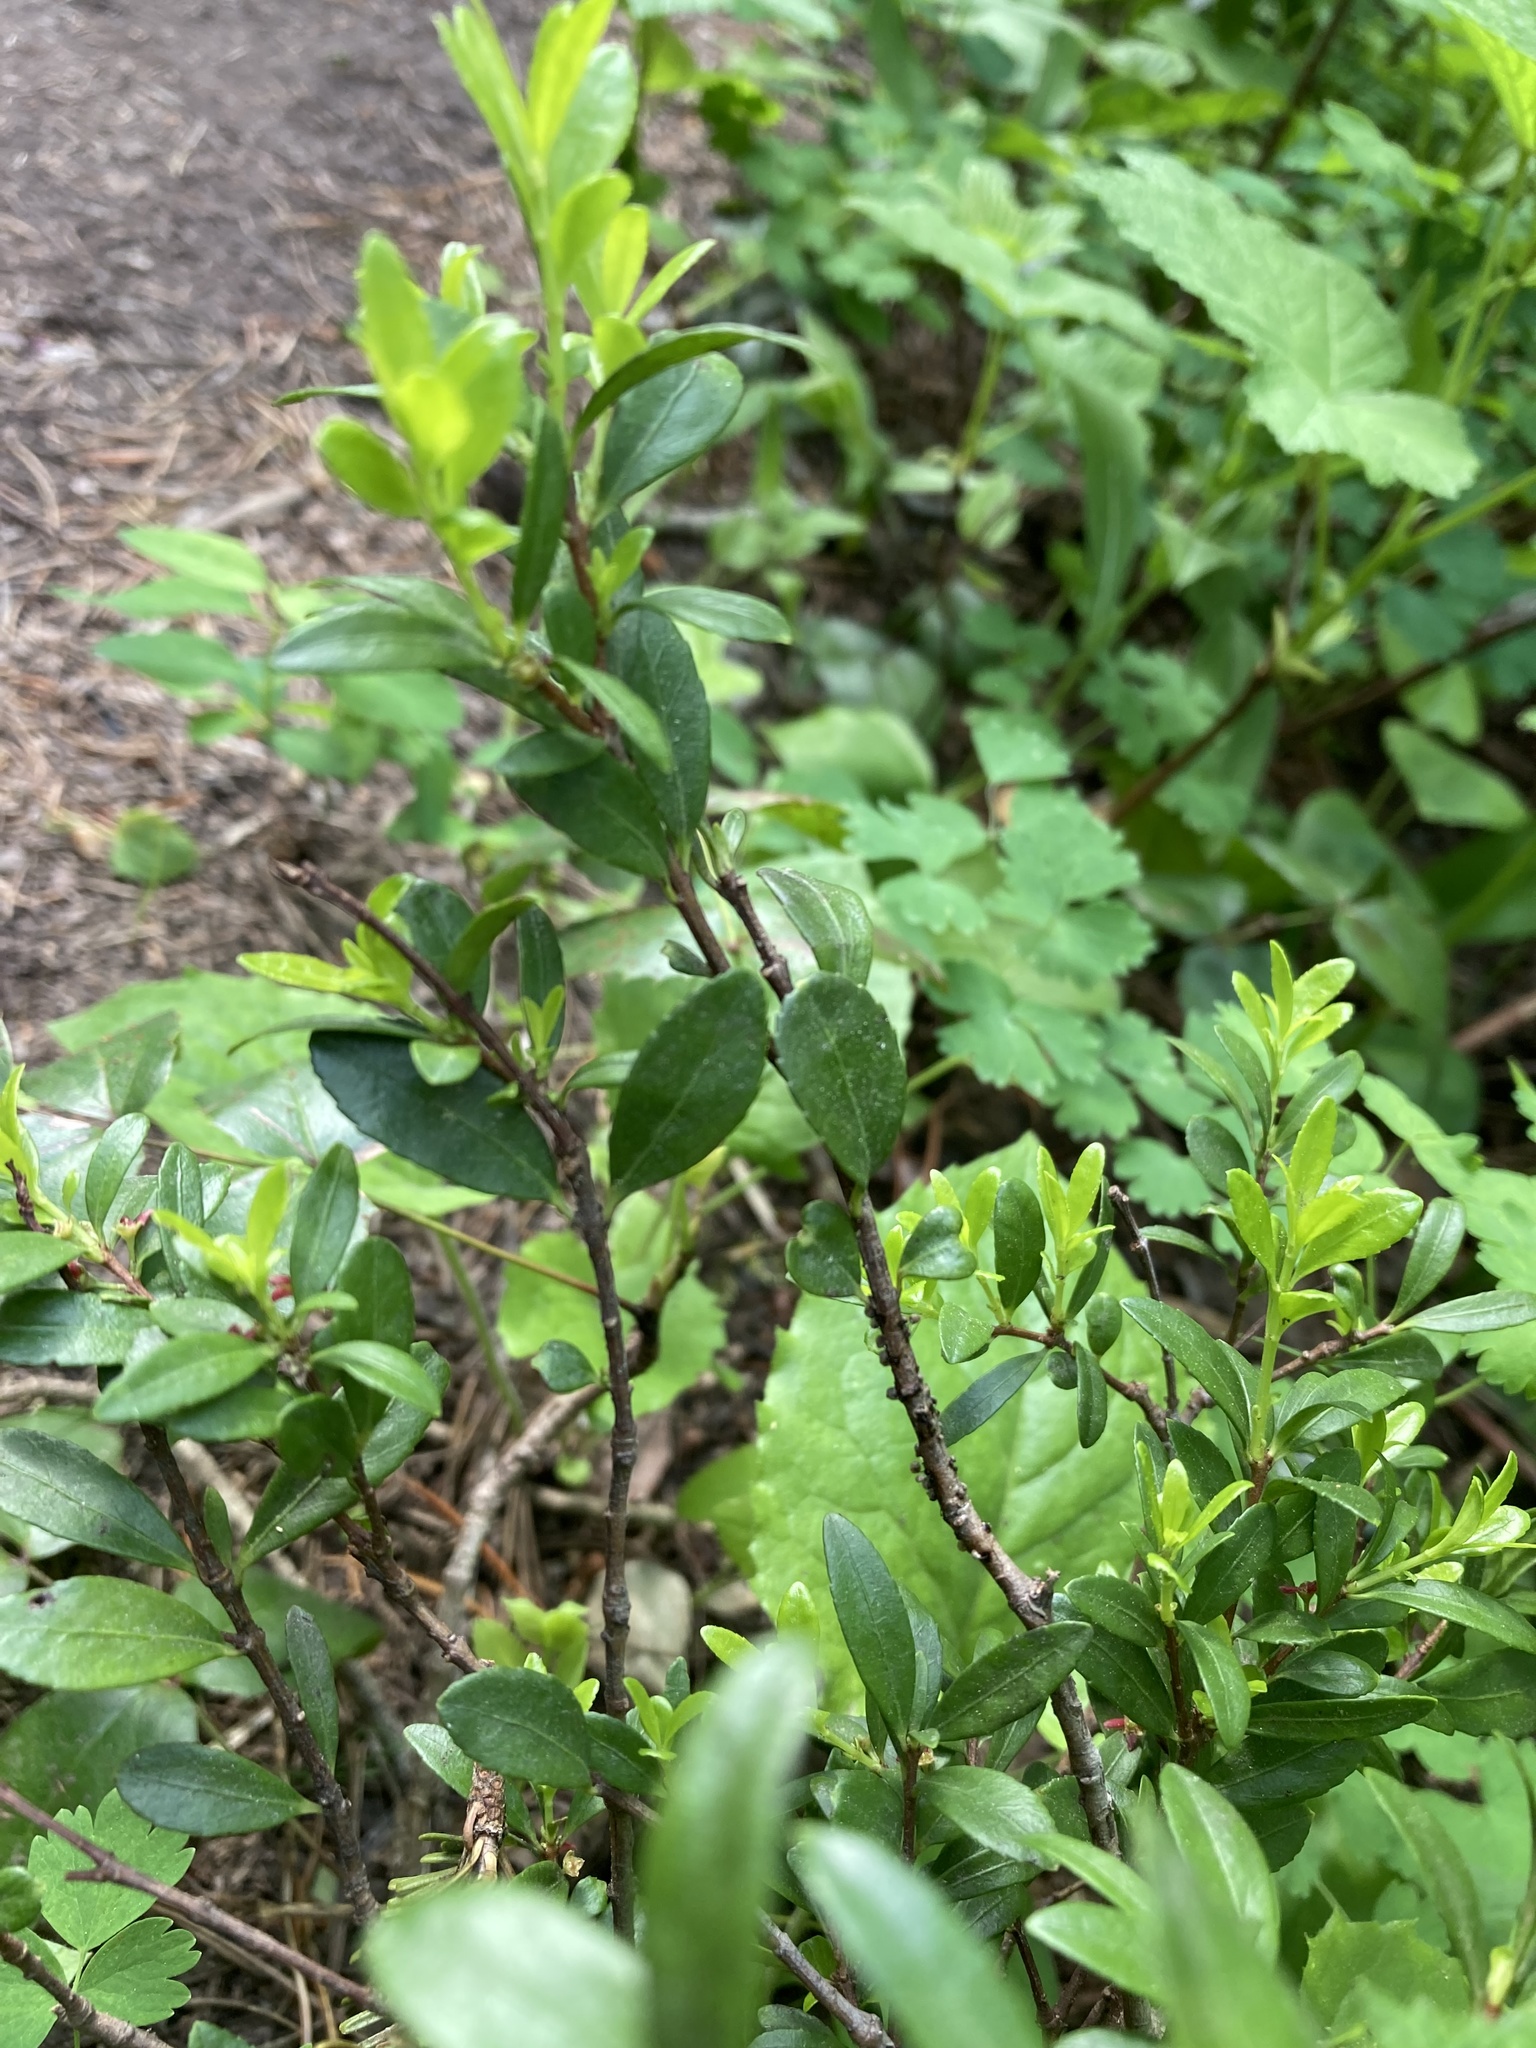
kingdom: Plantae
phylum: Tracheophyta
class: Magnoliopsida
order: Celastrales
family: Celastraceae
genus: Paxistima
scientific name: Paxistima myrsinites
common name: Mountain-lover
